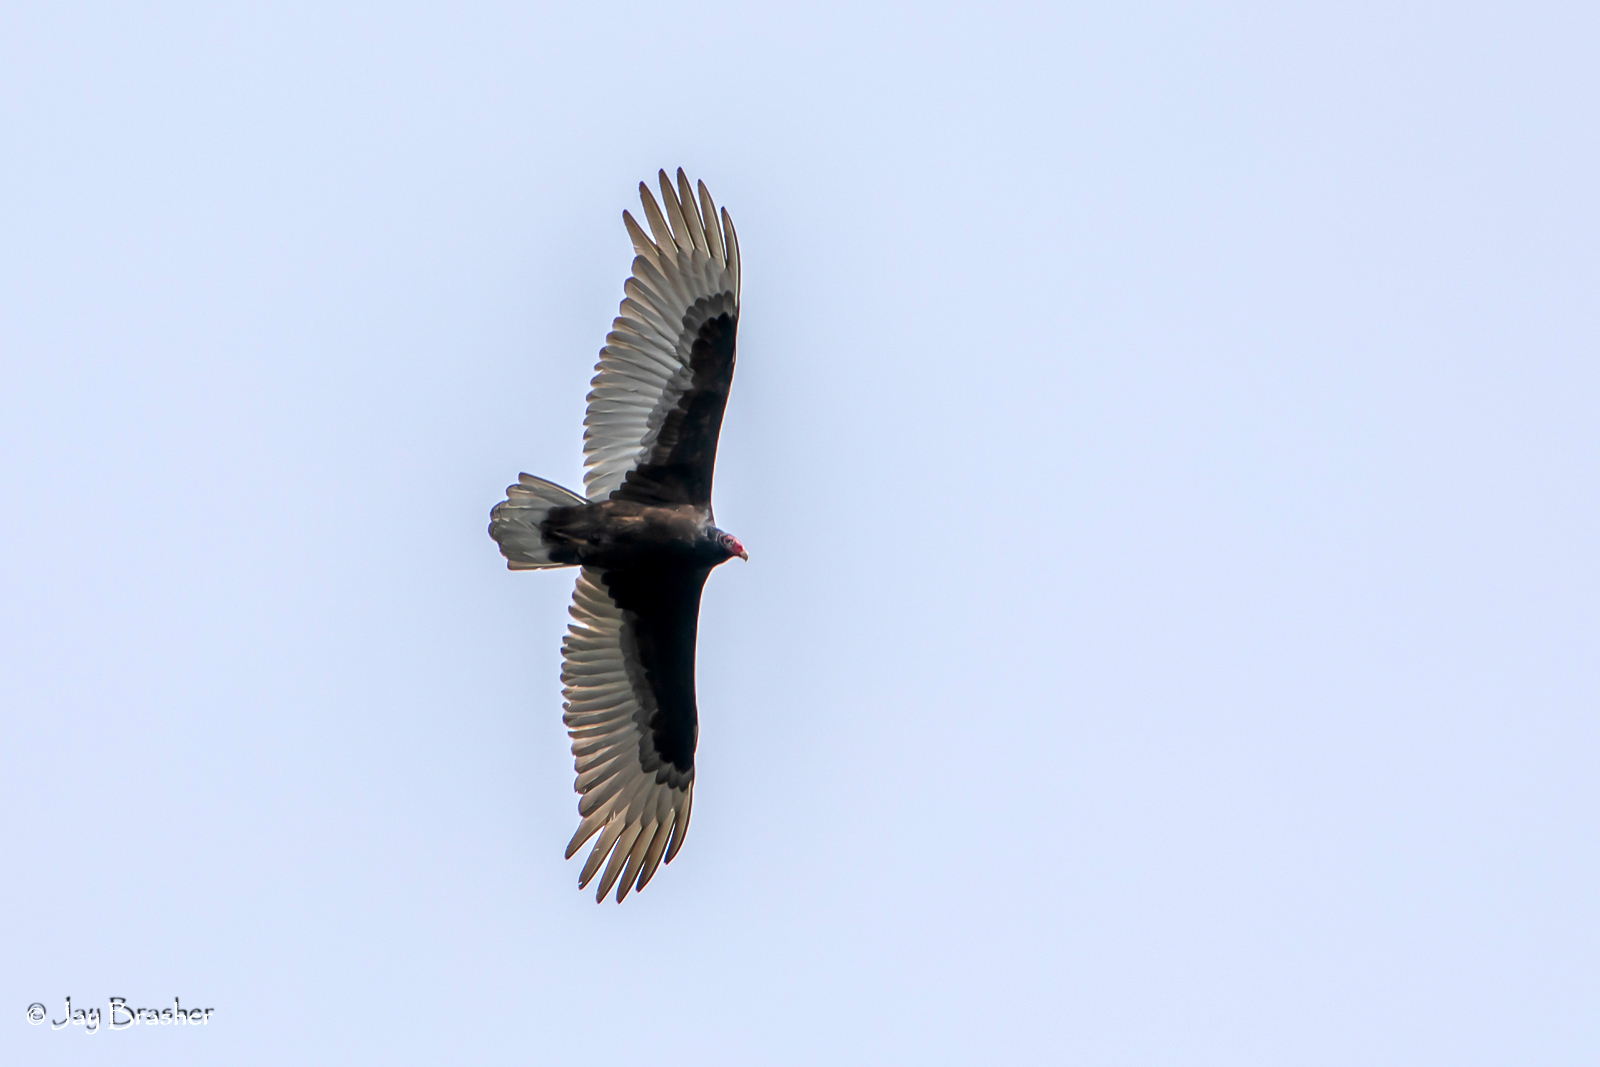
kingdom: Animalia
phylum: Chordata
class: Aves
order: Accipitriformes
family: Cathartidae
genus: Cathartes
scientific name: Cathartes aura
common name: Turkey vulture
